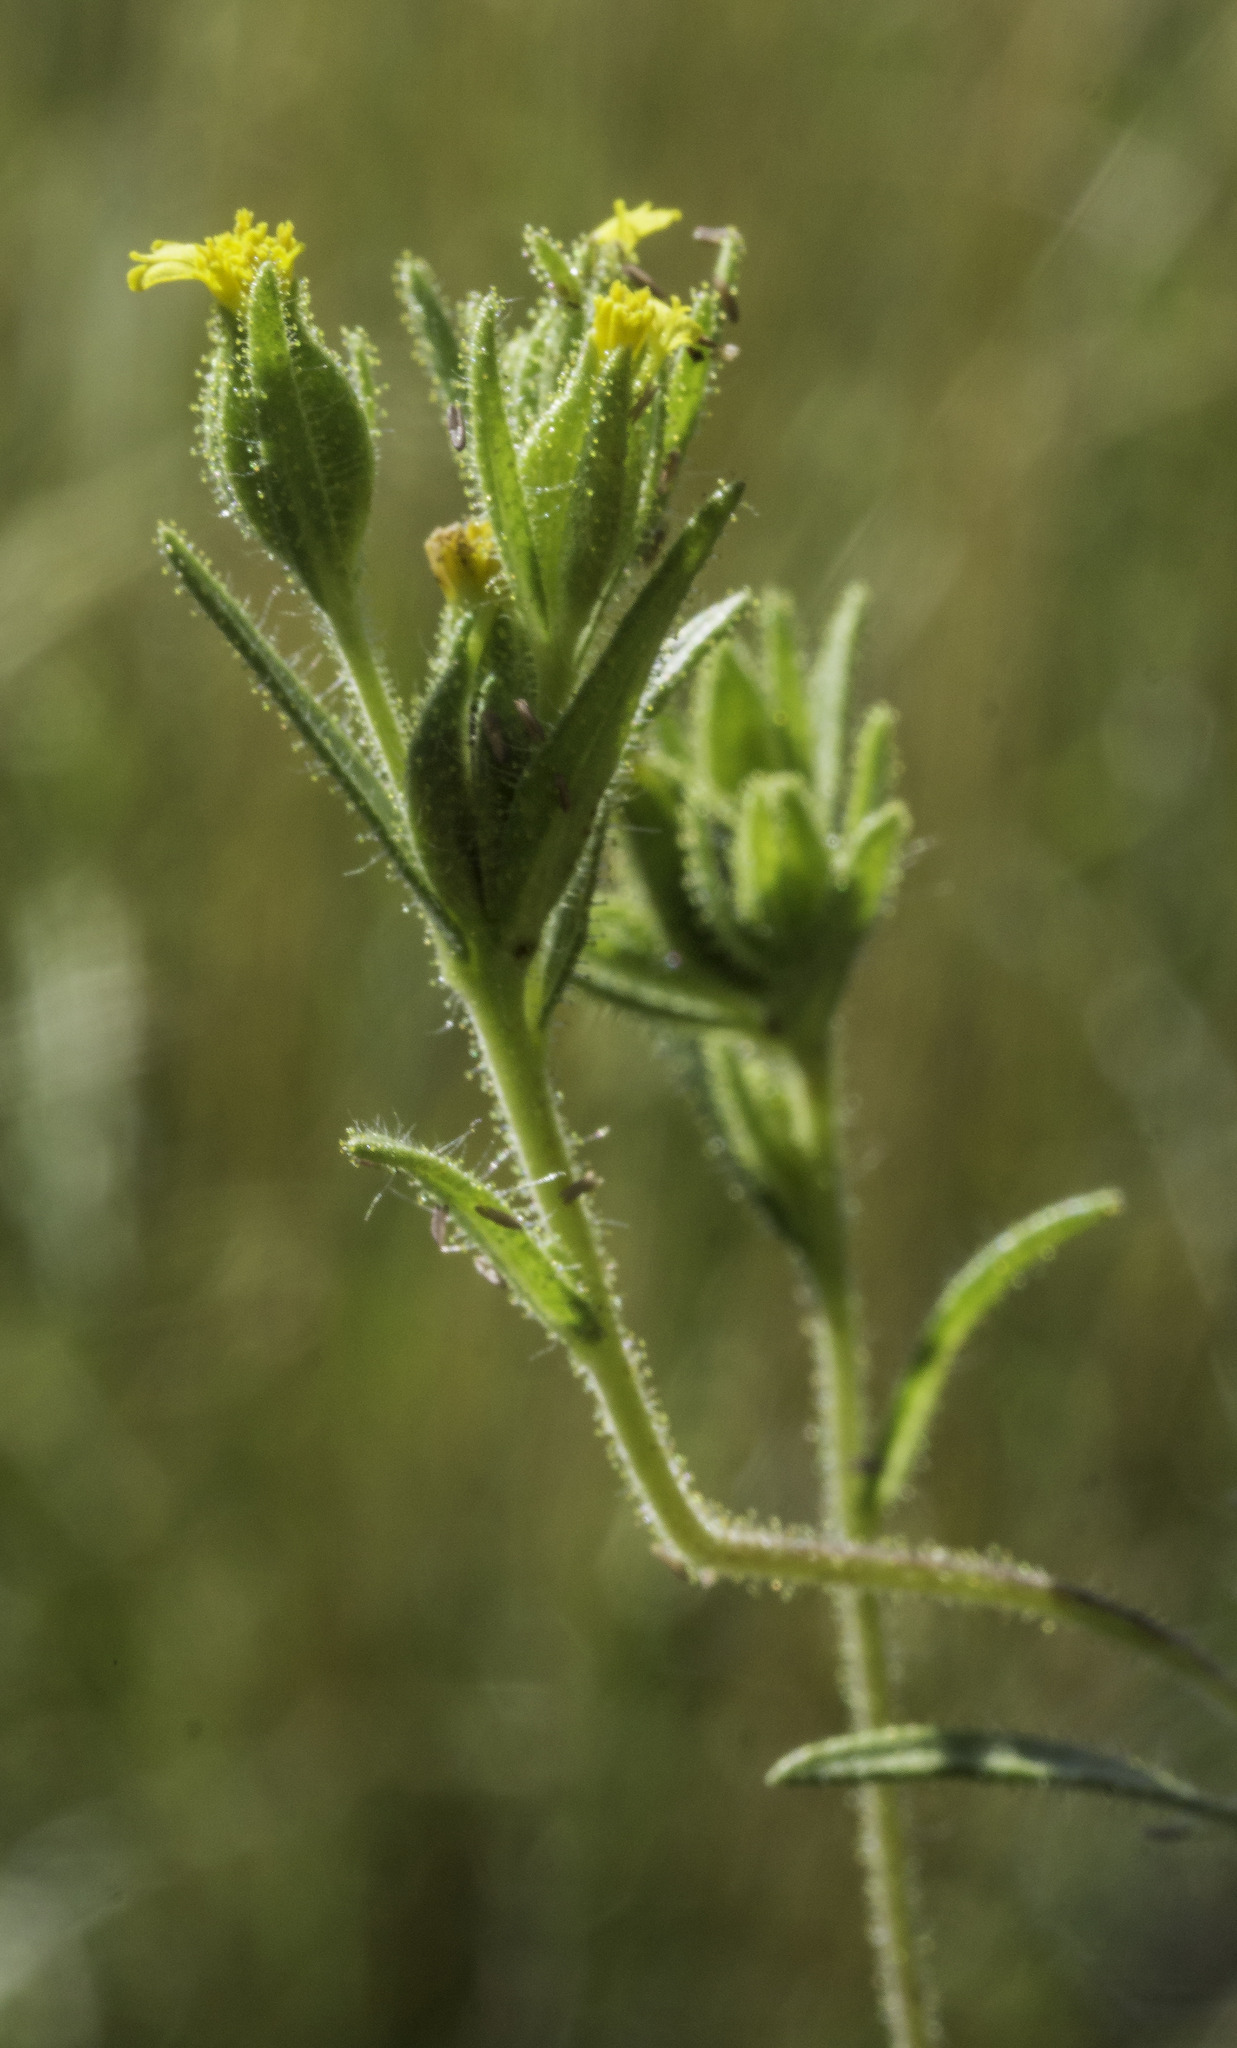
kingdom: Plantae
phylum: Tracheophyta
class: Magnoliopsida
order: Asterales
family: Asteraceae
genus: Madia
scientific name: Madia glomerata
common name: Mountain tarweed
